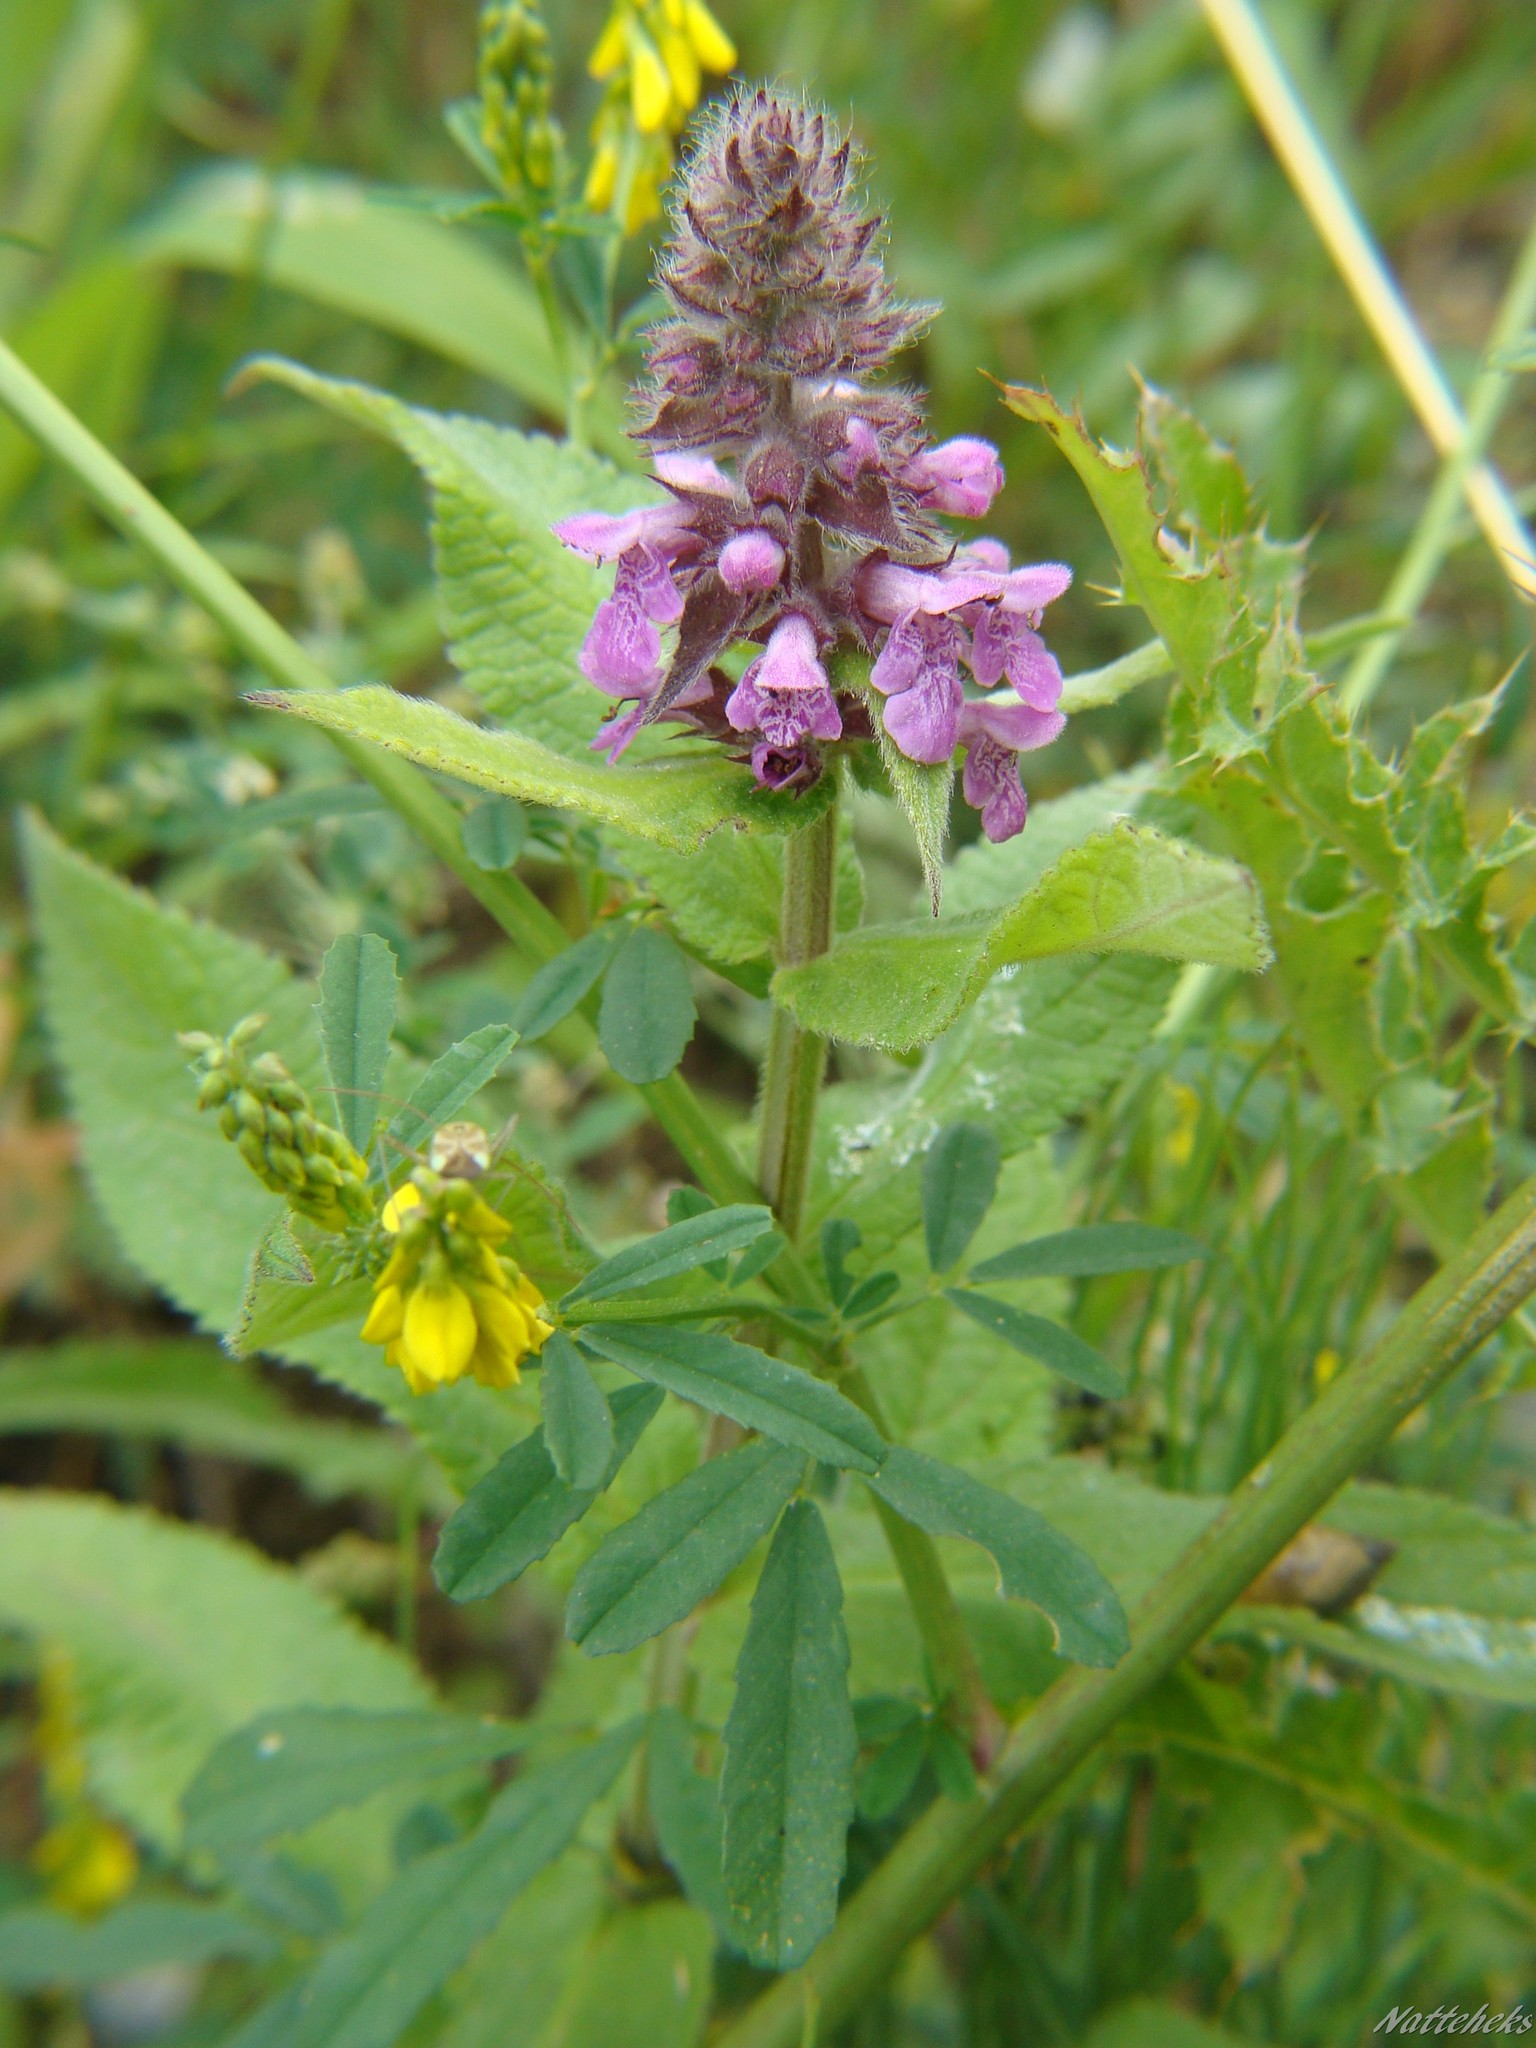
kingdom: Plantae
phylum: Tracheophyta
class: Magnoliopsida
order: Lamiales
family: Lamiaceae
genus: Stachys
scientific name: Stachys palustris
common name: Marsh woundwort
